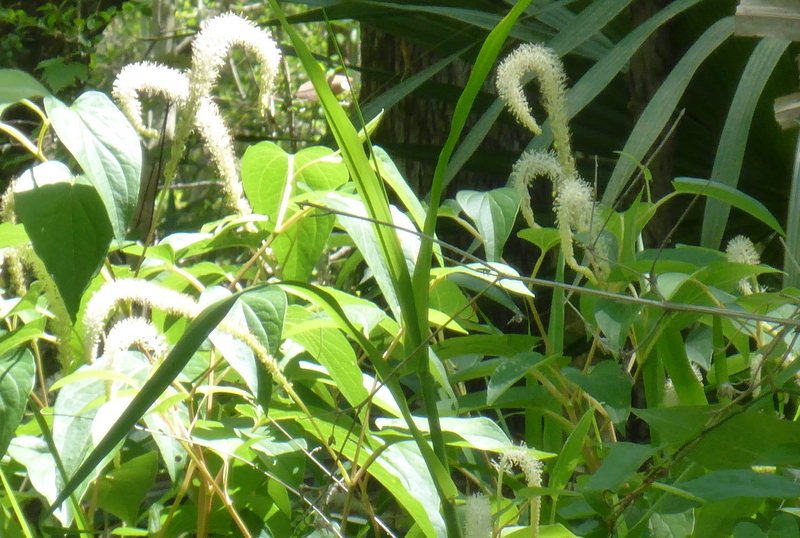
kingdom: Plantae
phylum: Tracheophyta
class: Magnoliopsida
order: Piperales
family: Saururaceae
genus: Saururus
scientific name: Saururus cernuus
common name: Lizard's-tail
